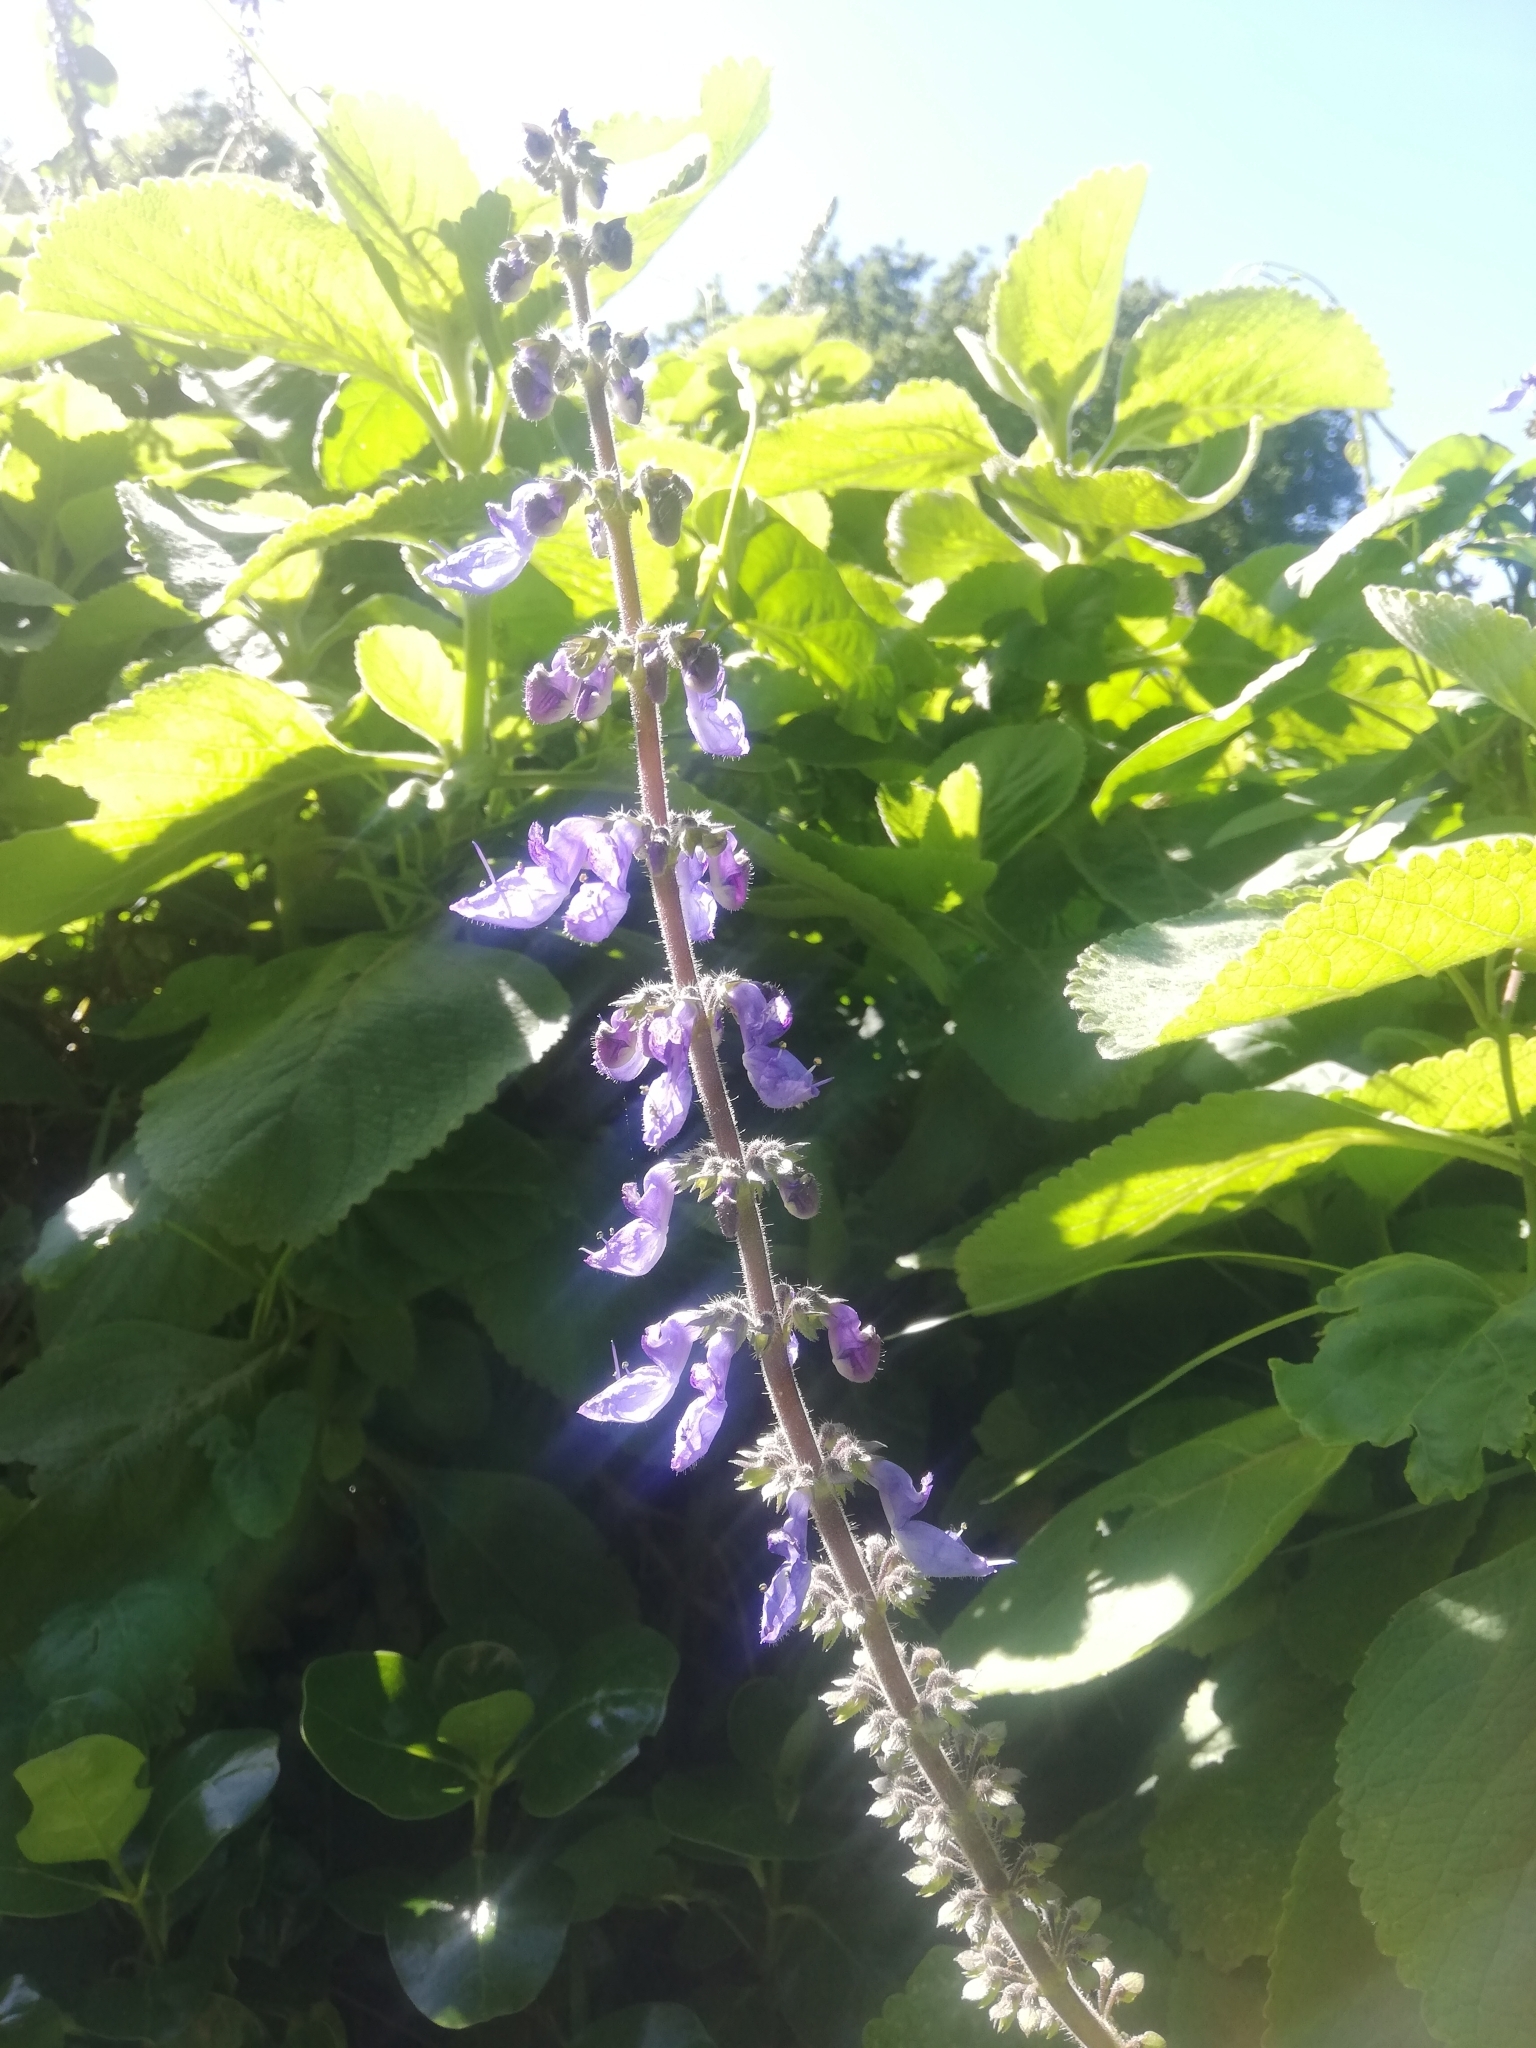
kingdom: Plantae
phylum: Tracheophyta
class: Magnoliopsida
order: Lamiales
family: Lamiaceae
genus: Coleus
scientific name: Coleus barbatus
